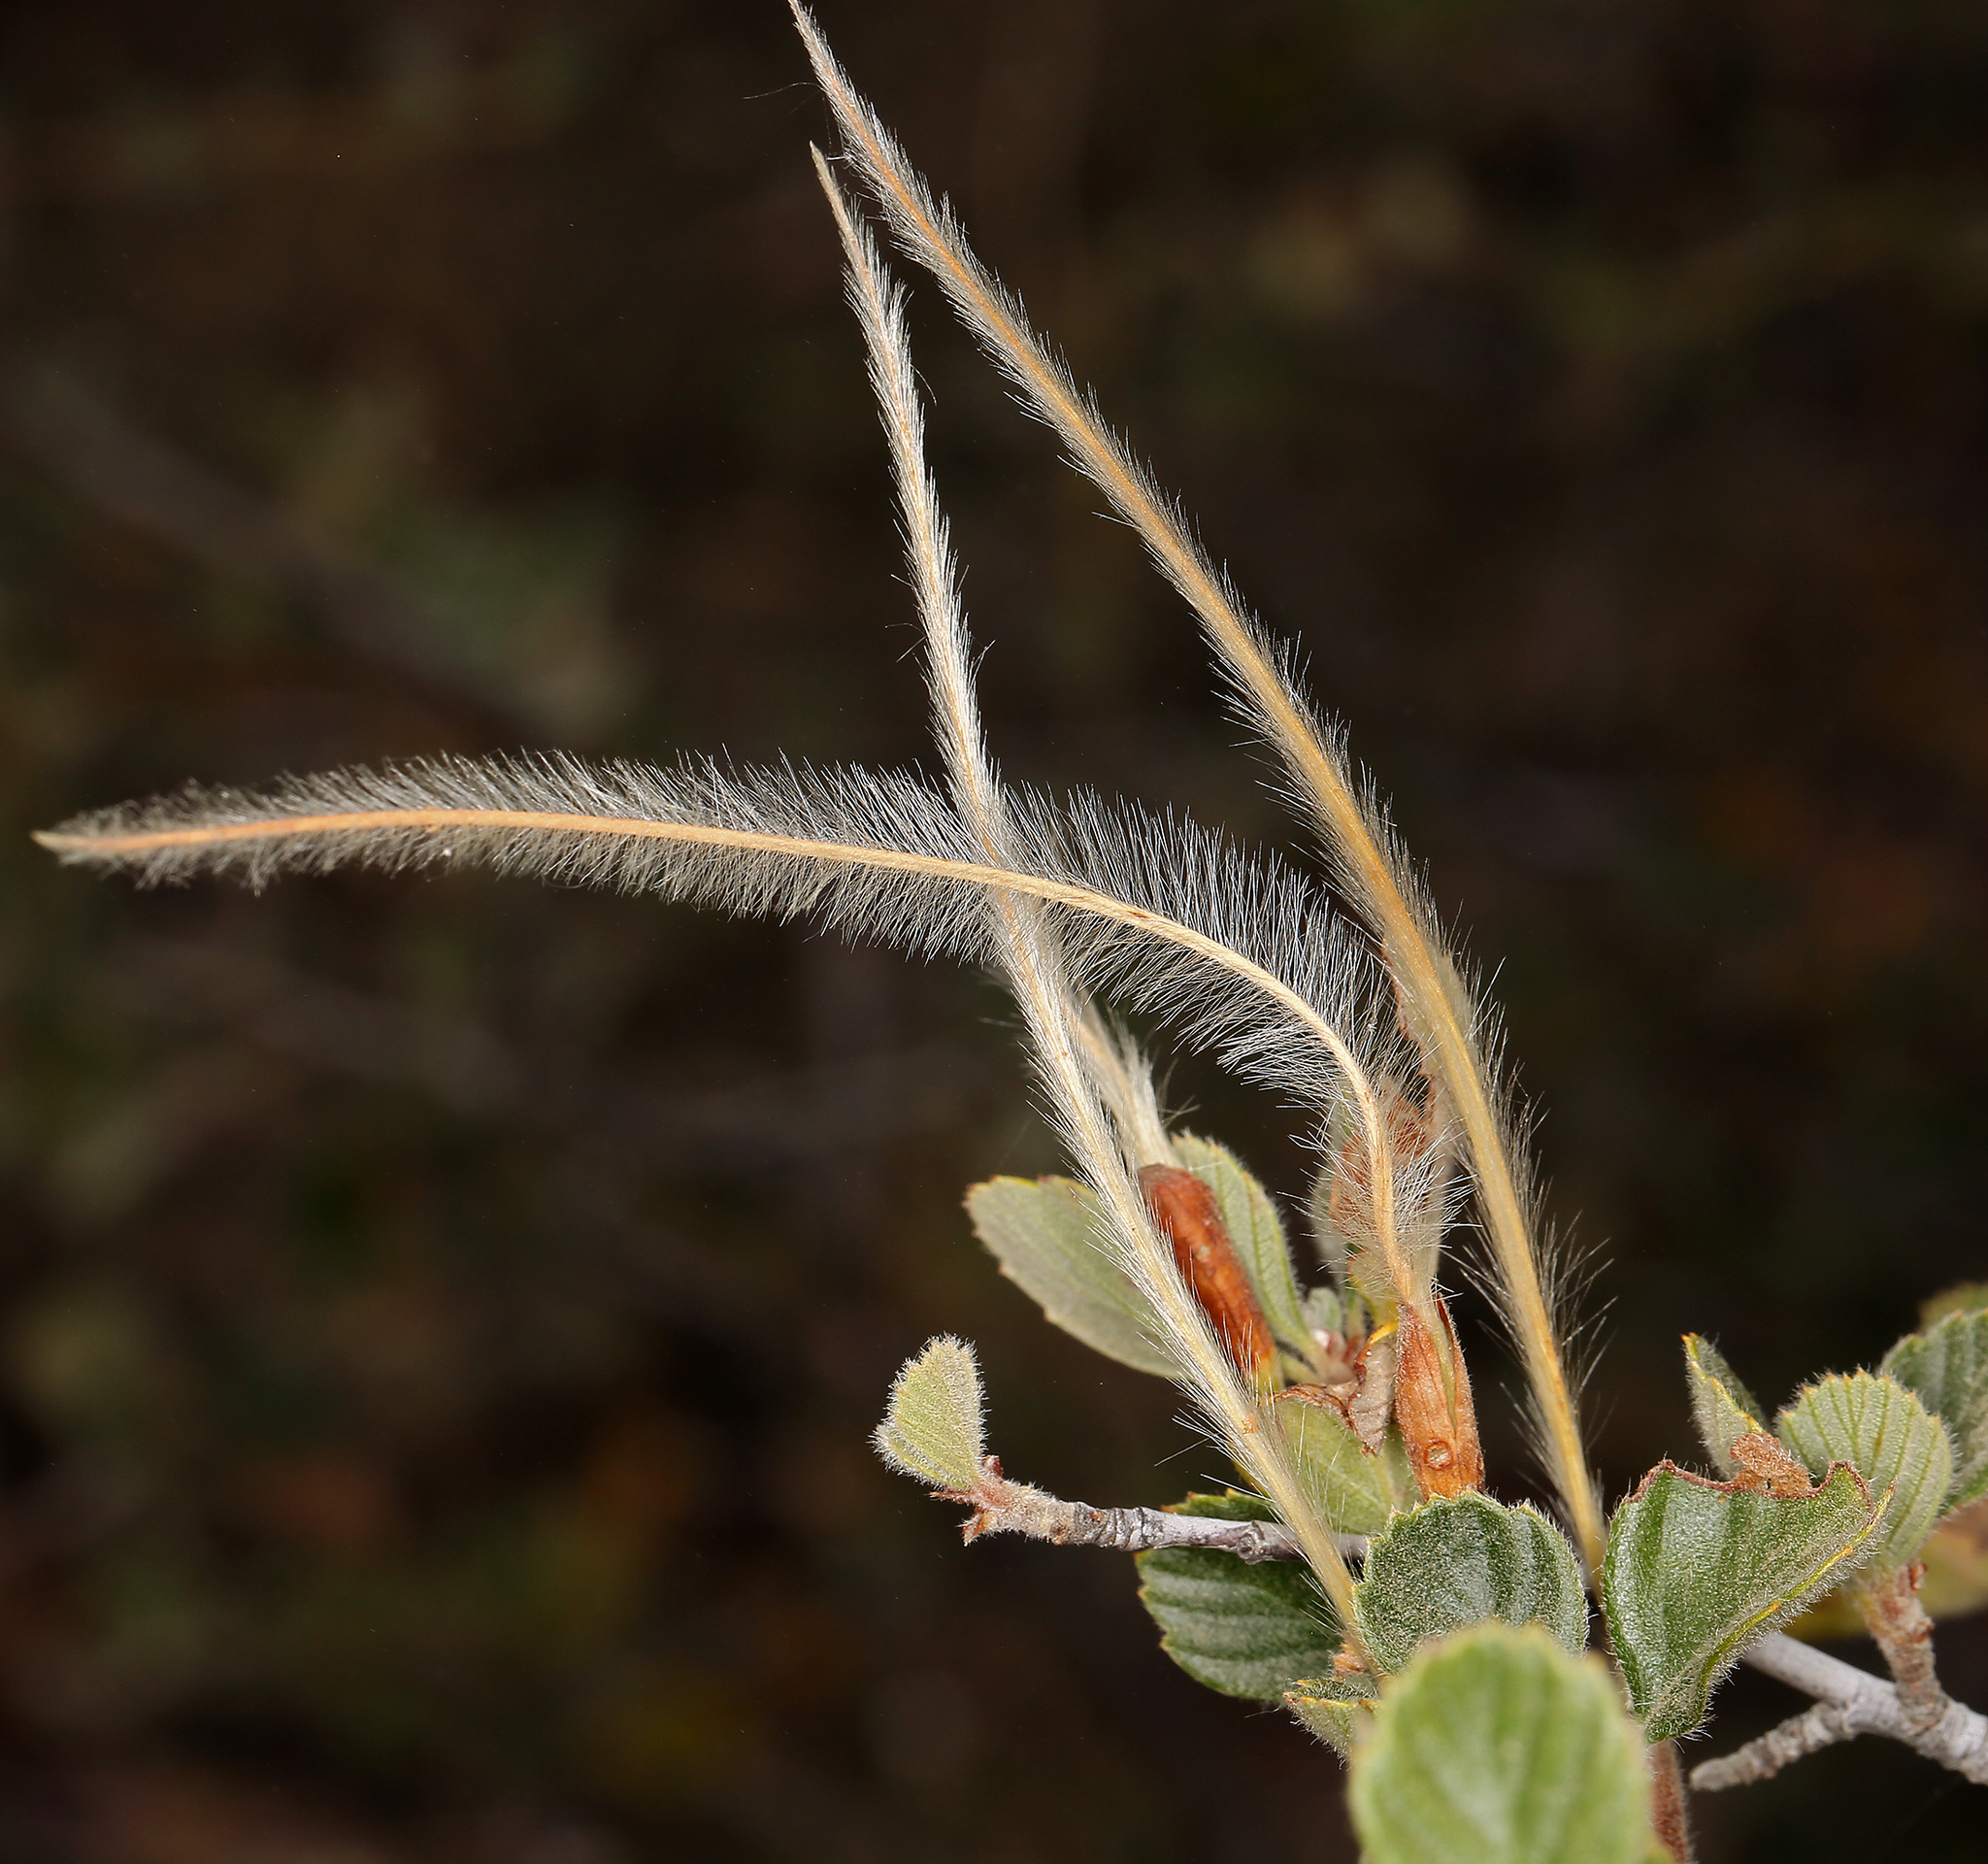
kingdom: Plantae
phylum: Tracheophyta
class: Magnoliopsida
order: Rosales
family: Rosaceae
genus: Cercocarpus
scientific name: Cercocarpus betuloides
